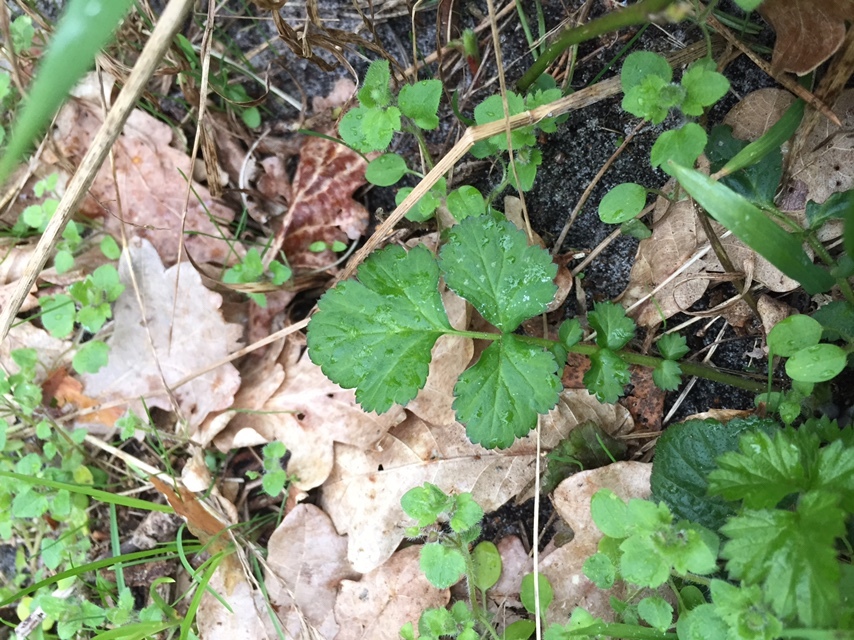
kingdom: Plantae
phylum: Tracheophyta
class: Magnoliopsida
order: Rosales
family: Rosaceae
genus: Geum
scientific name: Geum urbanum
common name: Wood avens
